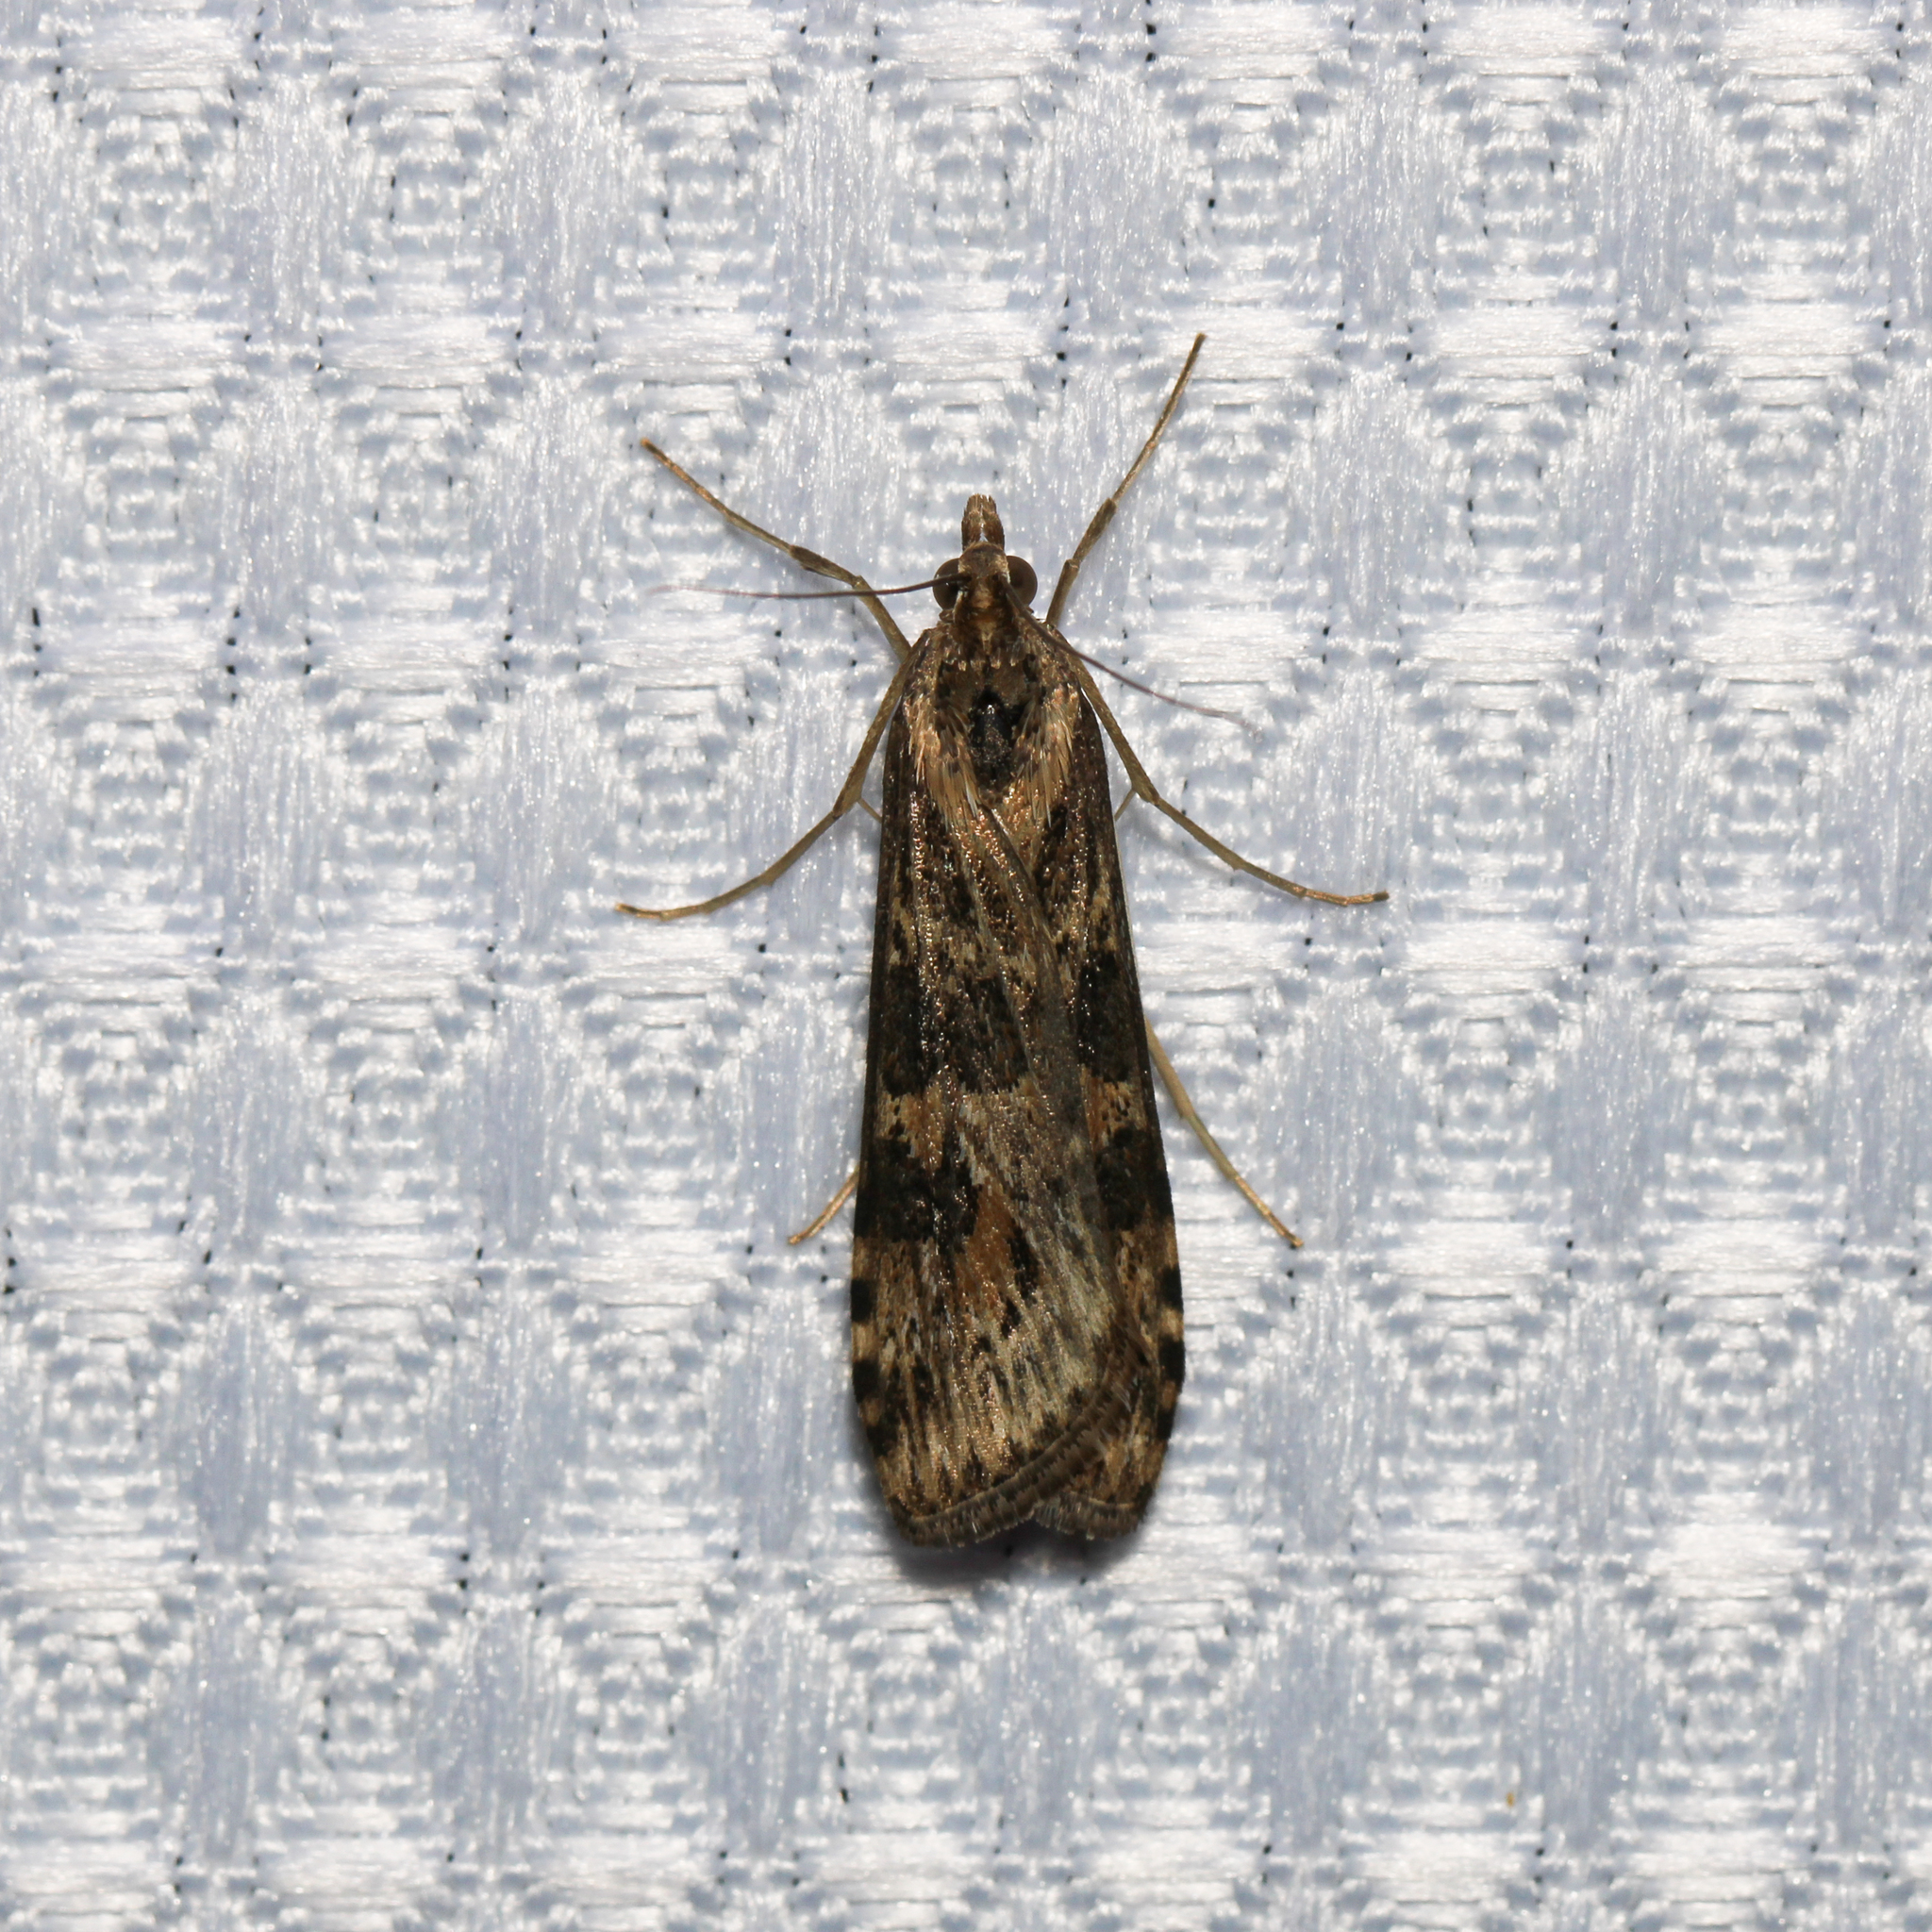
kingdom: Animalia
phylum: Arthropoda
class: Insecta
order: Lepidoptera
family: Crambidae
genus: Nomophila
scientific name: Nomophila nearctica
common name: American rush veneer
